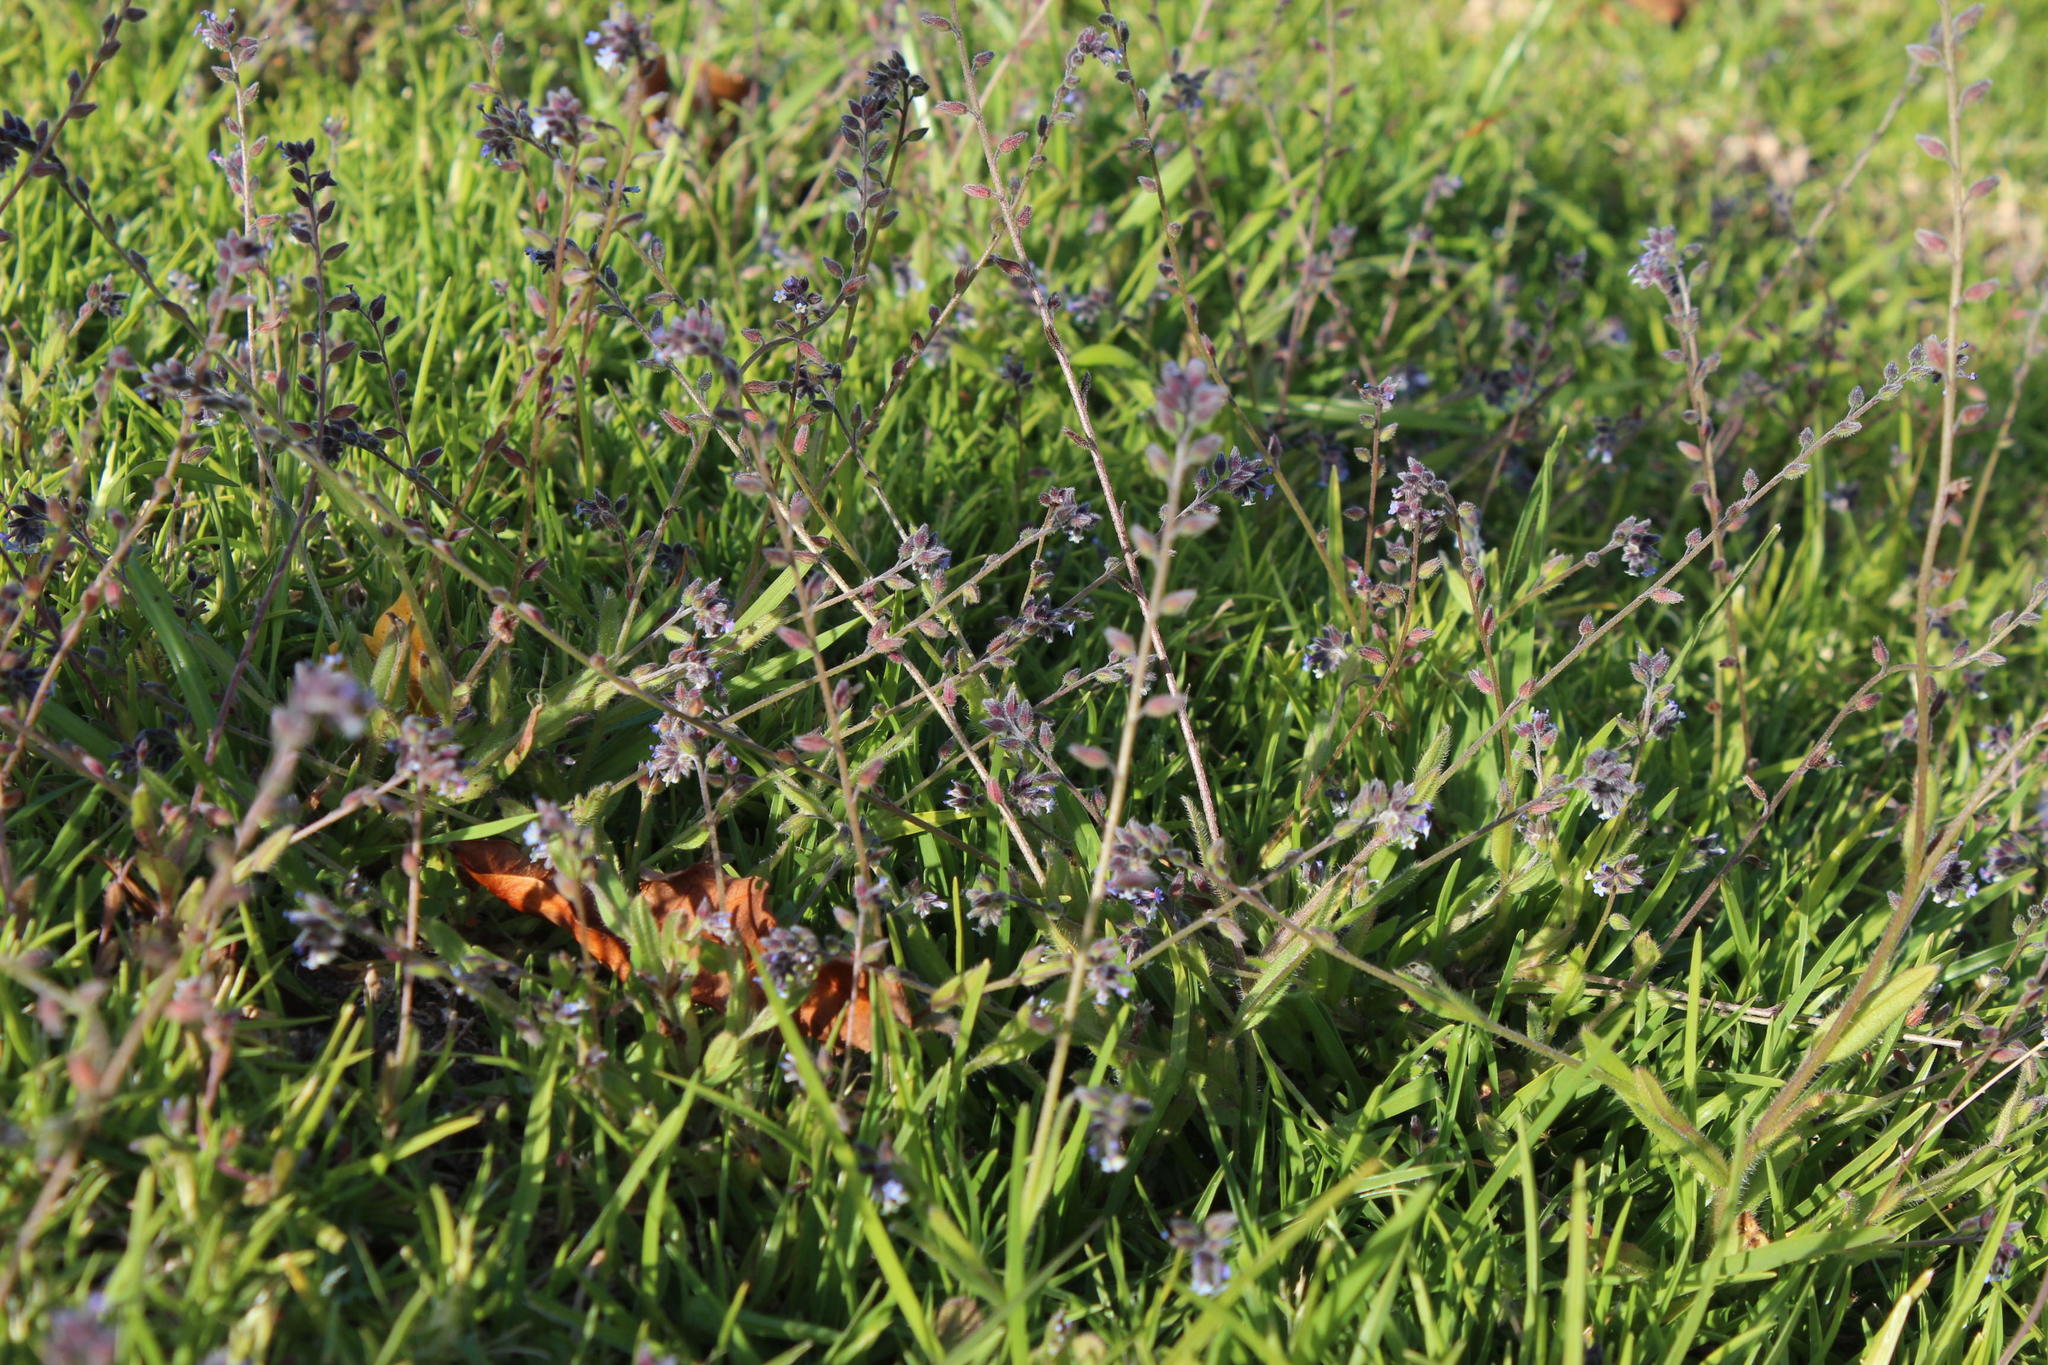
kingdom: Plantae
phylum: Tracheophyta
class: Liliopsida
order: Poales
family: Poaceae
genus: Briza
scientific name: Briza minor
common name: Lesser quaking-grass
